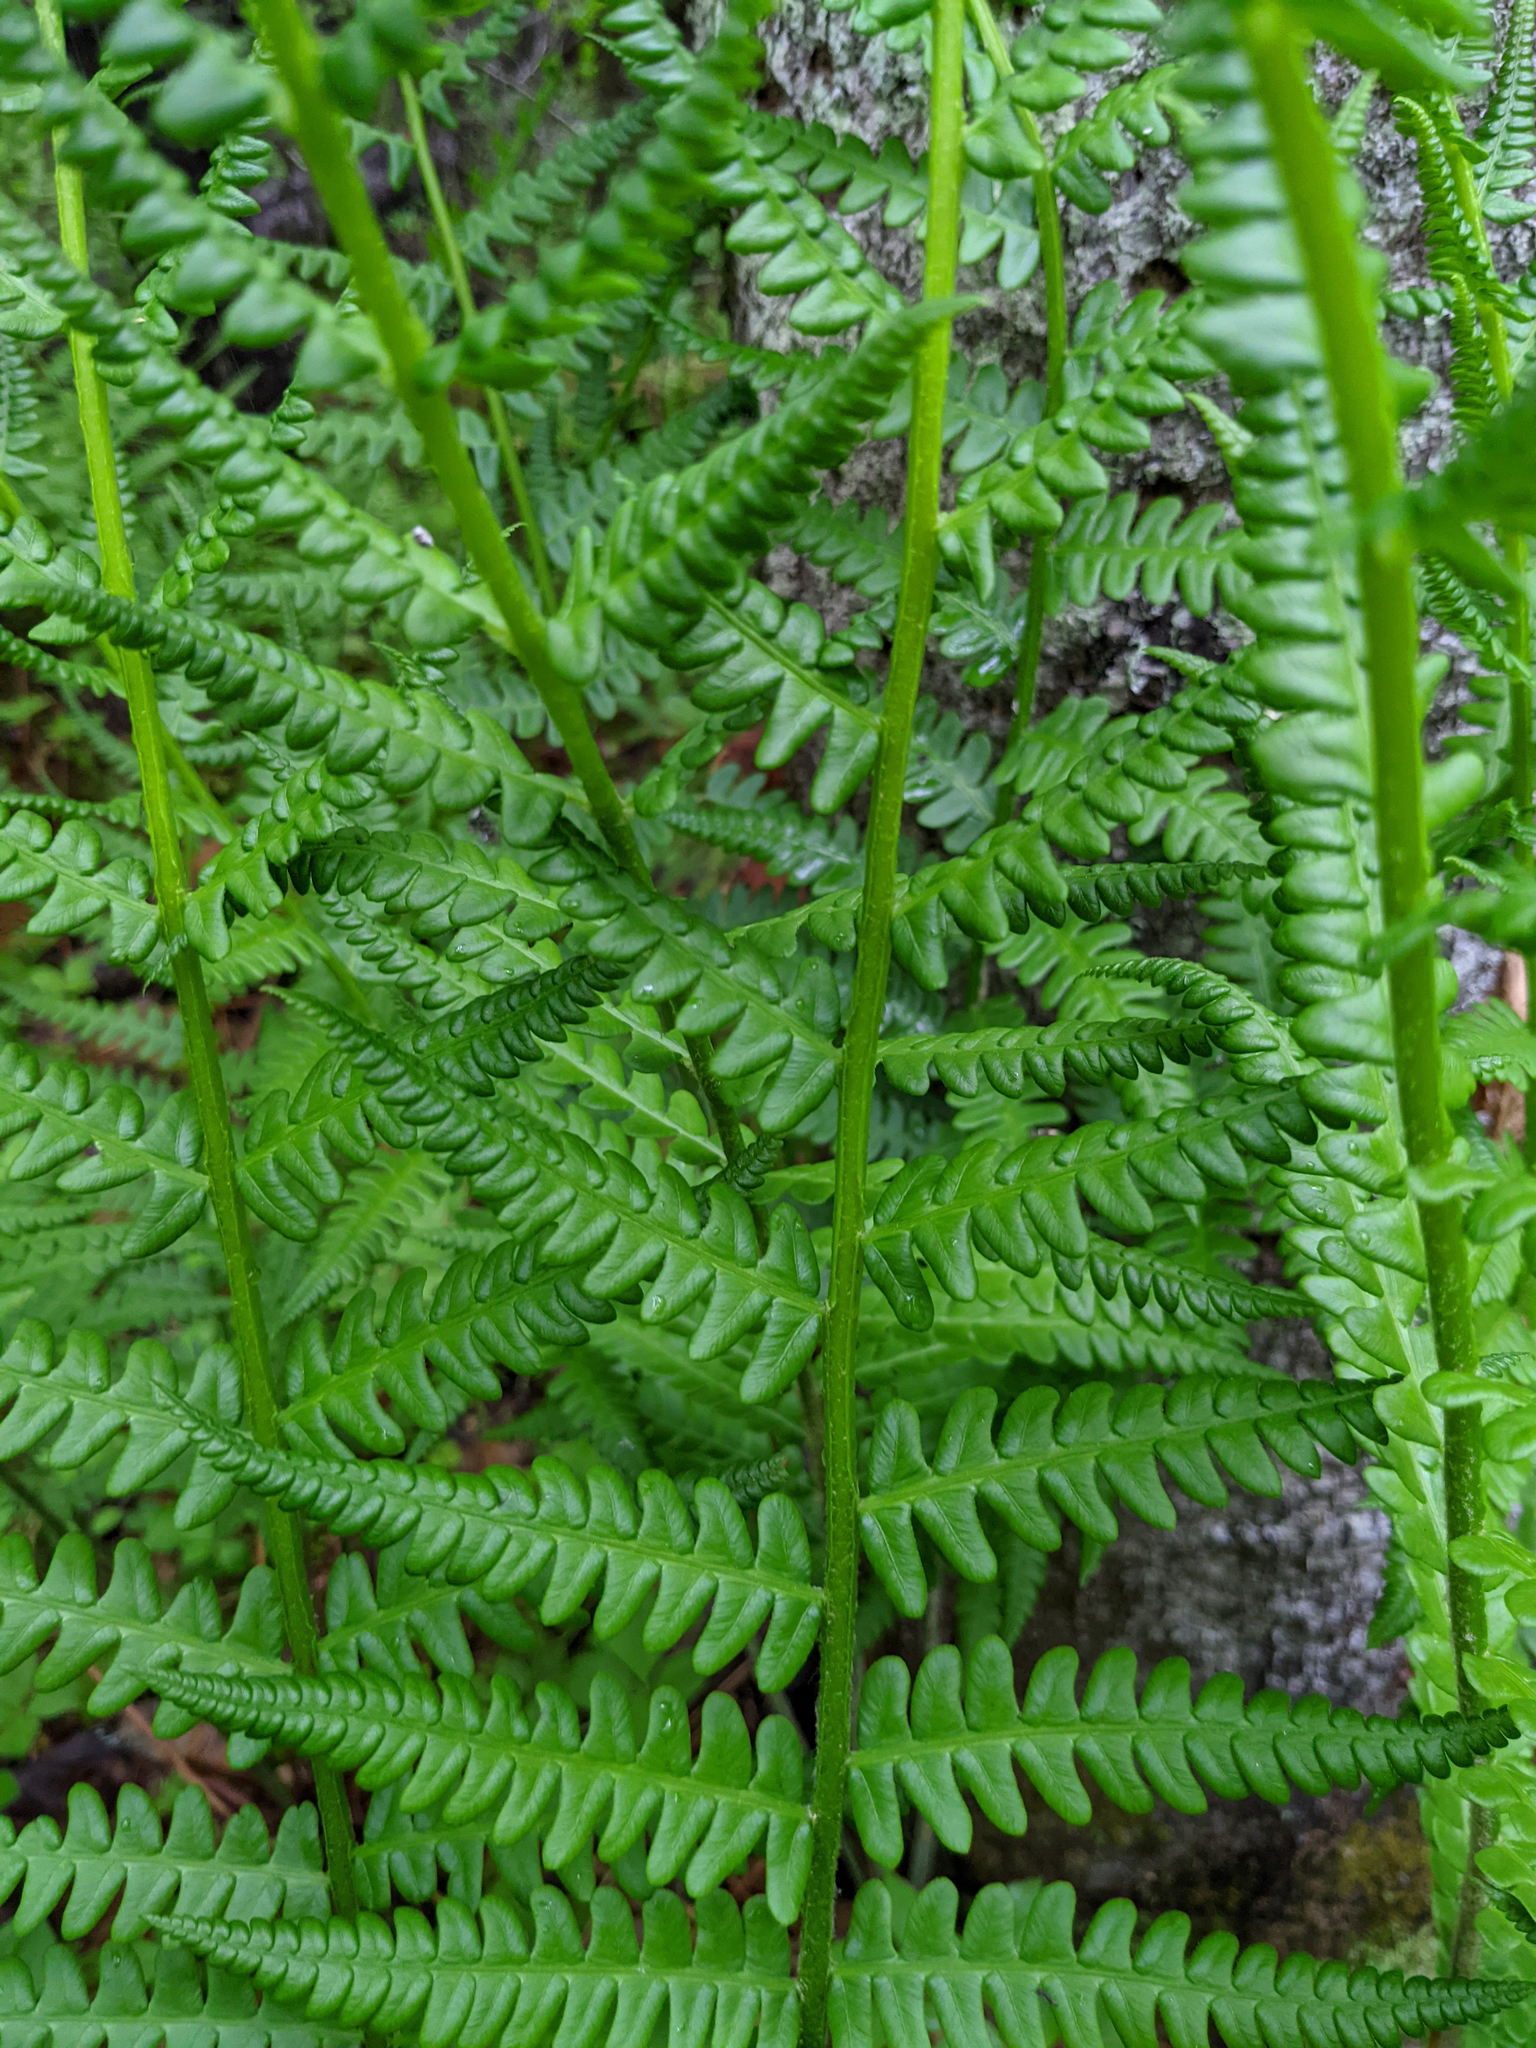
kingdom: Plantae
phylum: Tracheophyta
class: Polypodiopsida
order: Osmundales
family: Osmundaceae
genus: Osmundastrum
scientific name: Osmundastrum cinnamomeum
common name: Cinnamon fern
